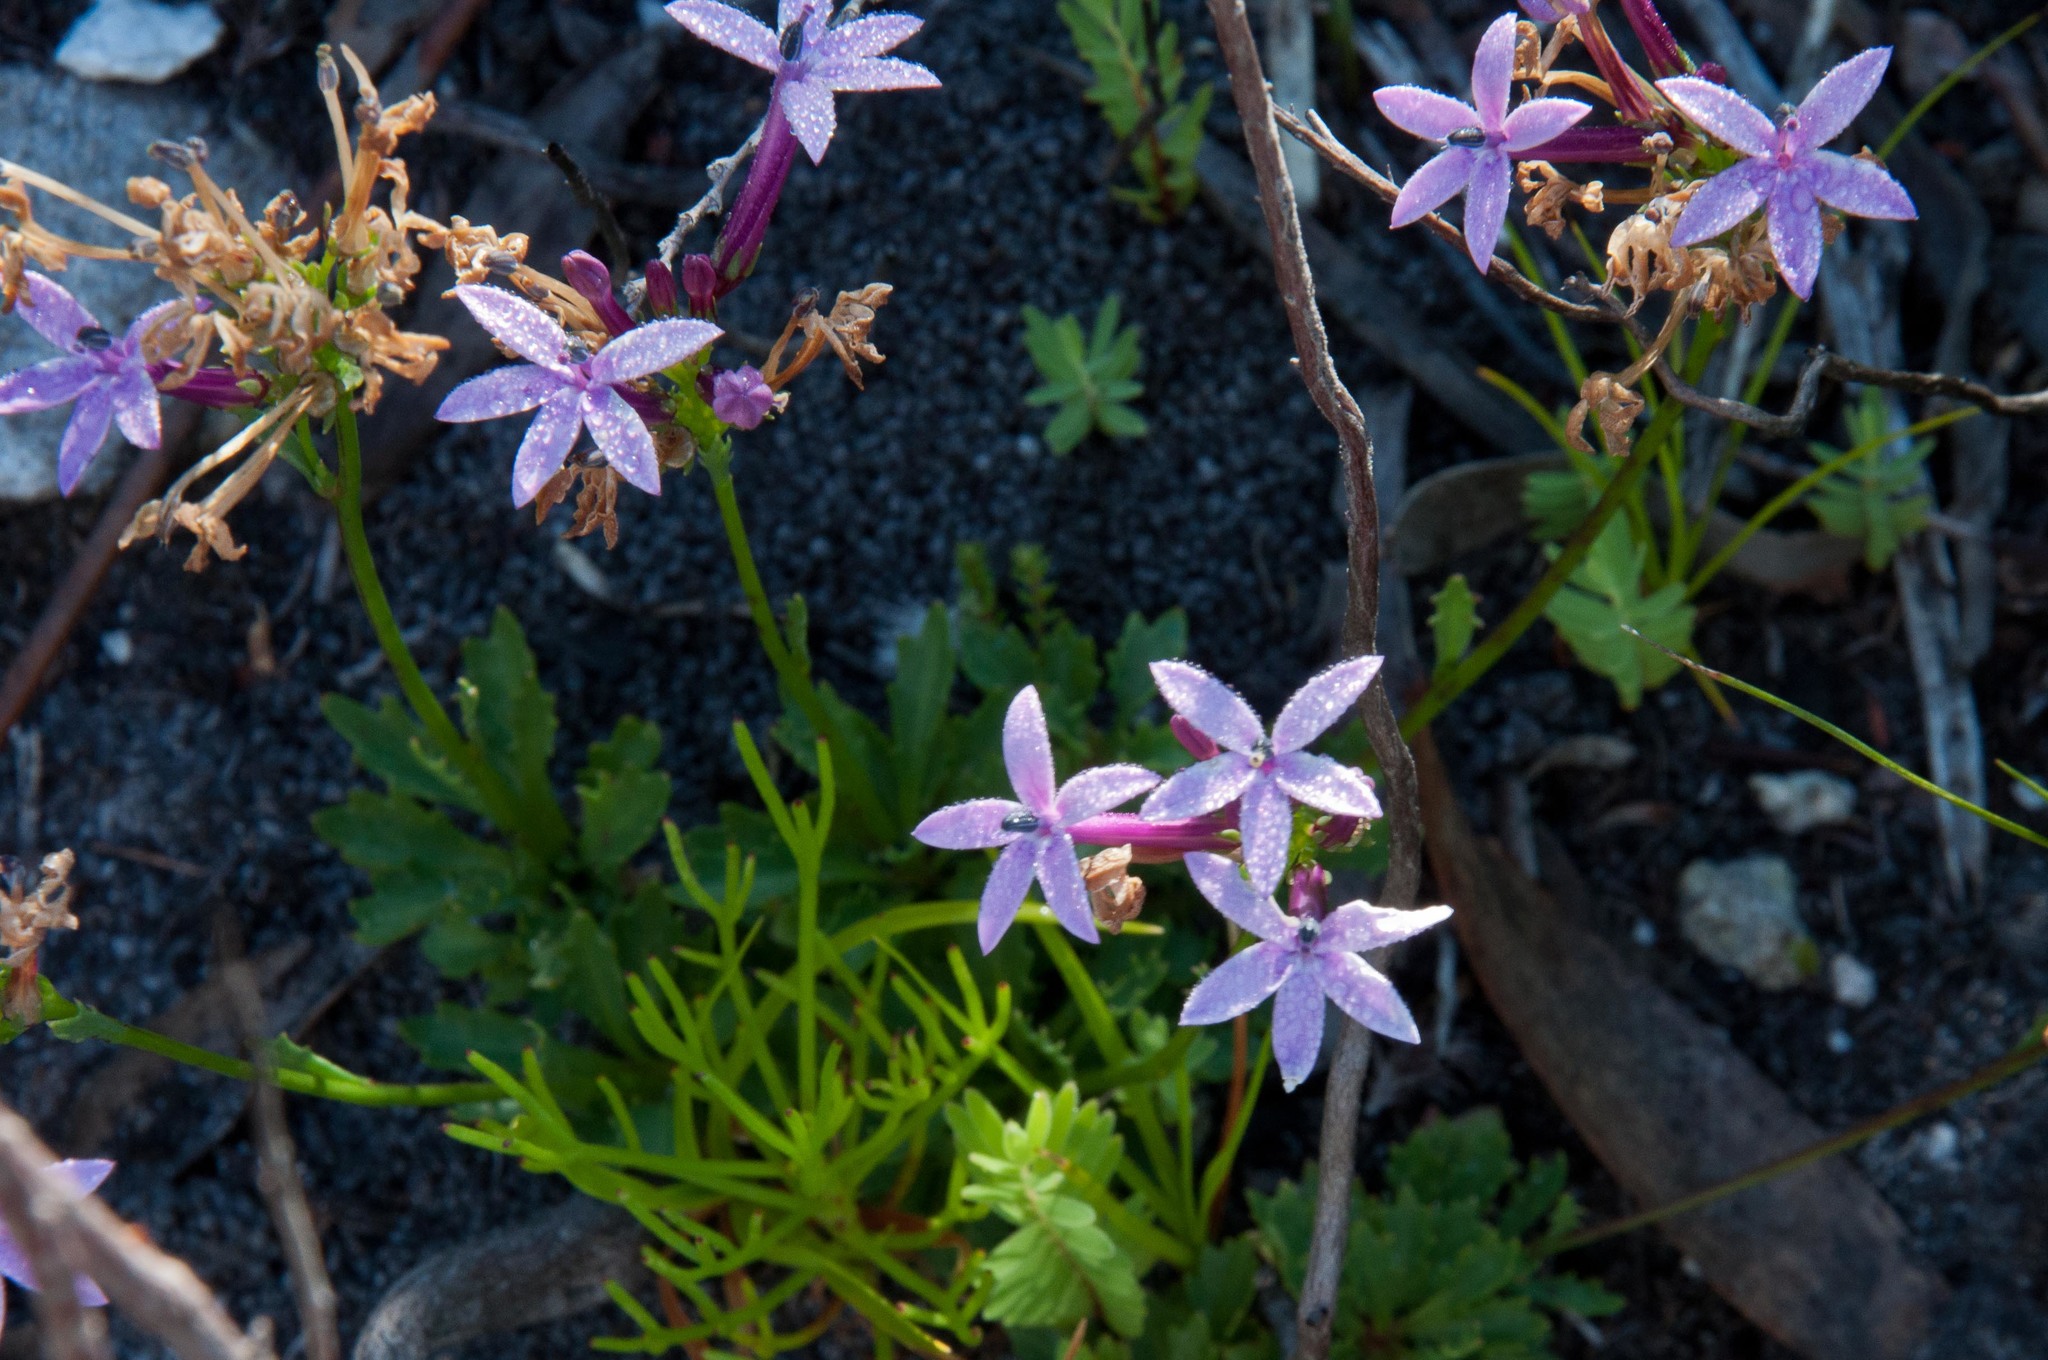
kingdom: Plantae
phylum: Tracheophyta
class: Magnoliopsida
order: Asterales
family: Campanulaceae
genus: Lobelia
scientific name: Lobelia stenosiphon
